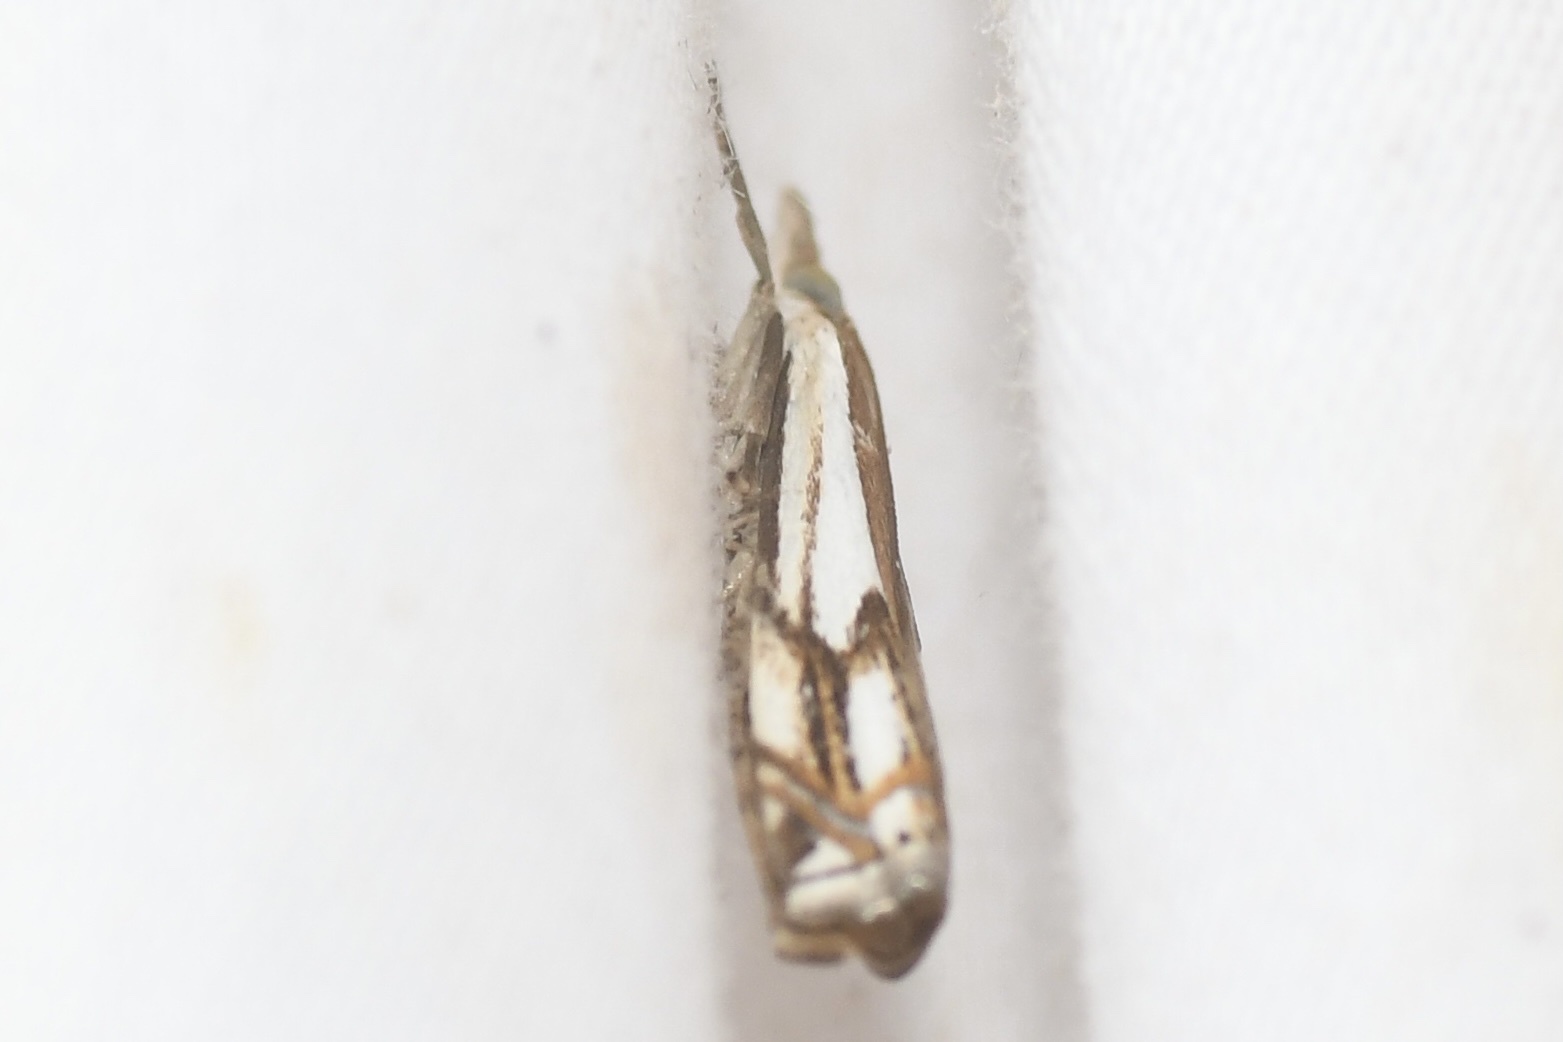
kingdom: Animalia
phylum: Arthropoda
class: Insecta
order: Lepidoptera
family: Crambidae
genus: Crambus
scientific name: Crambus agitatellus
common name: Double-banded grass-veneer
